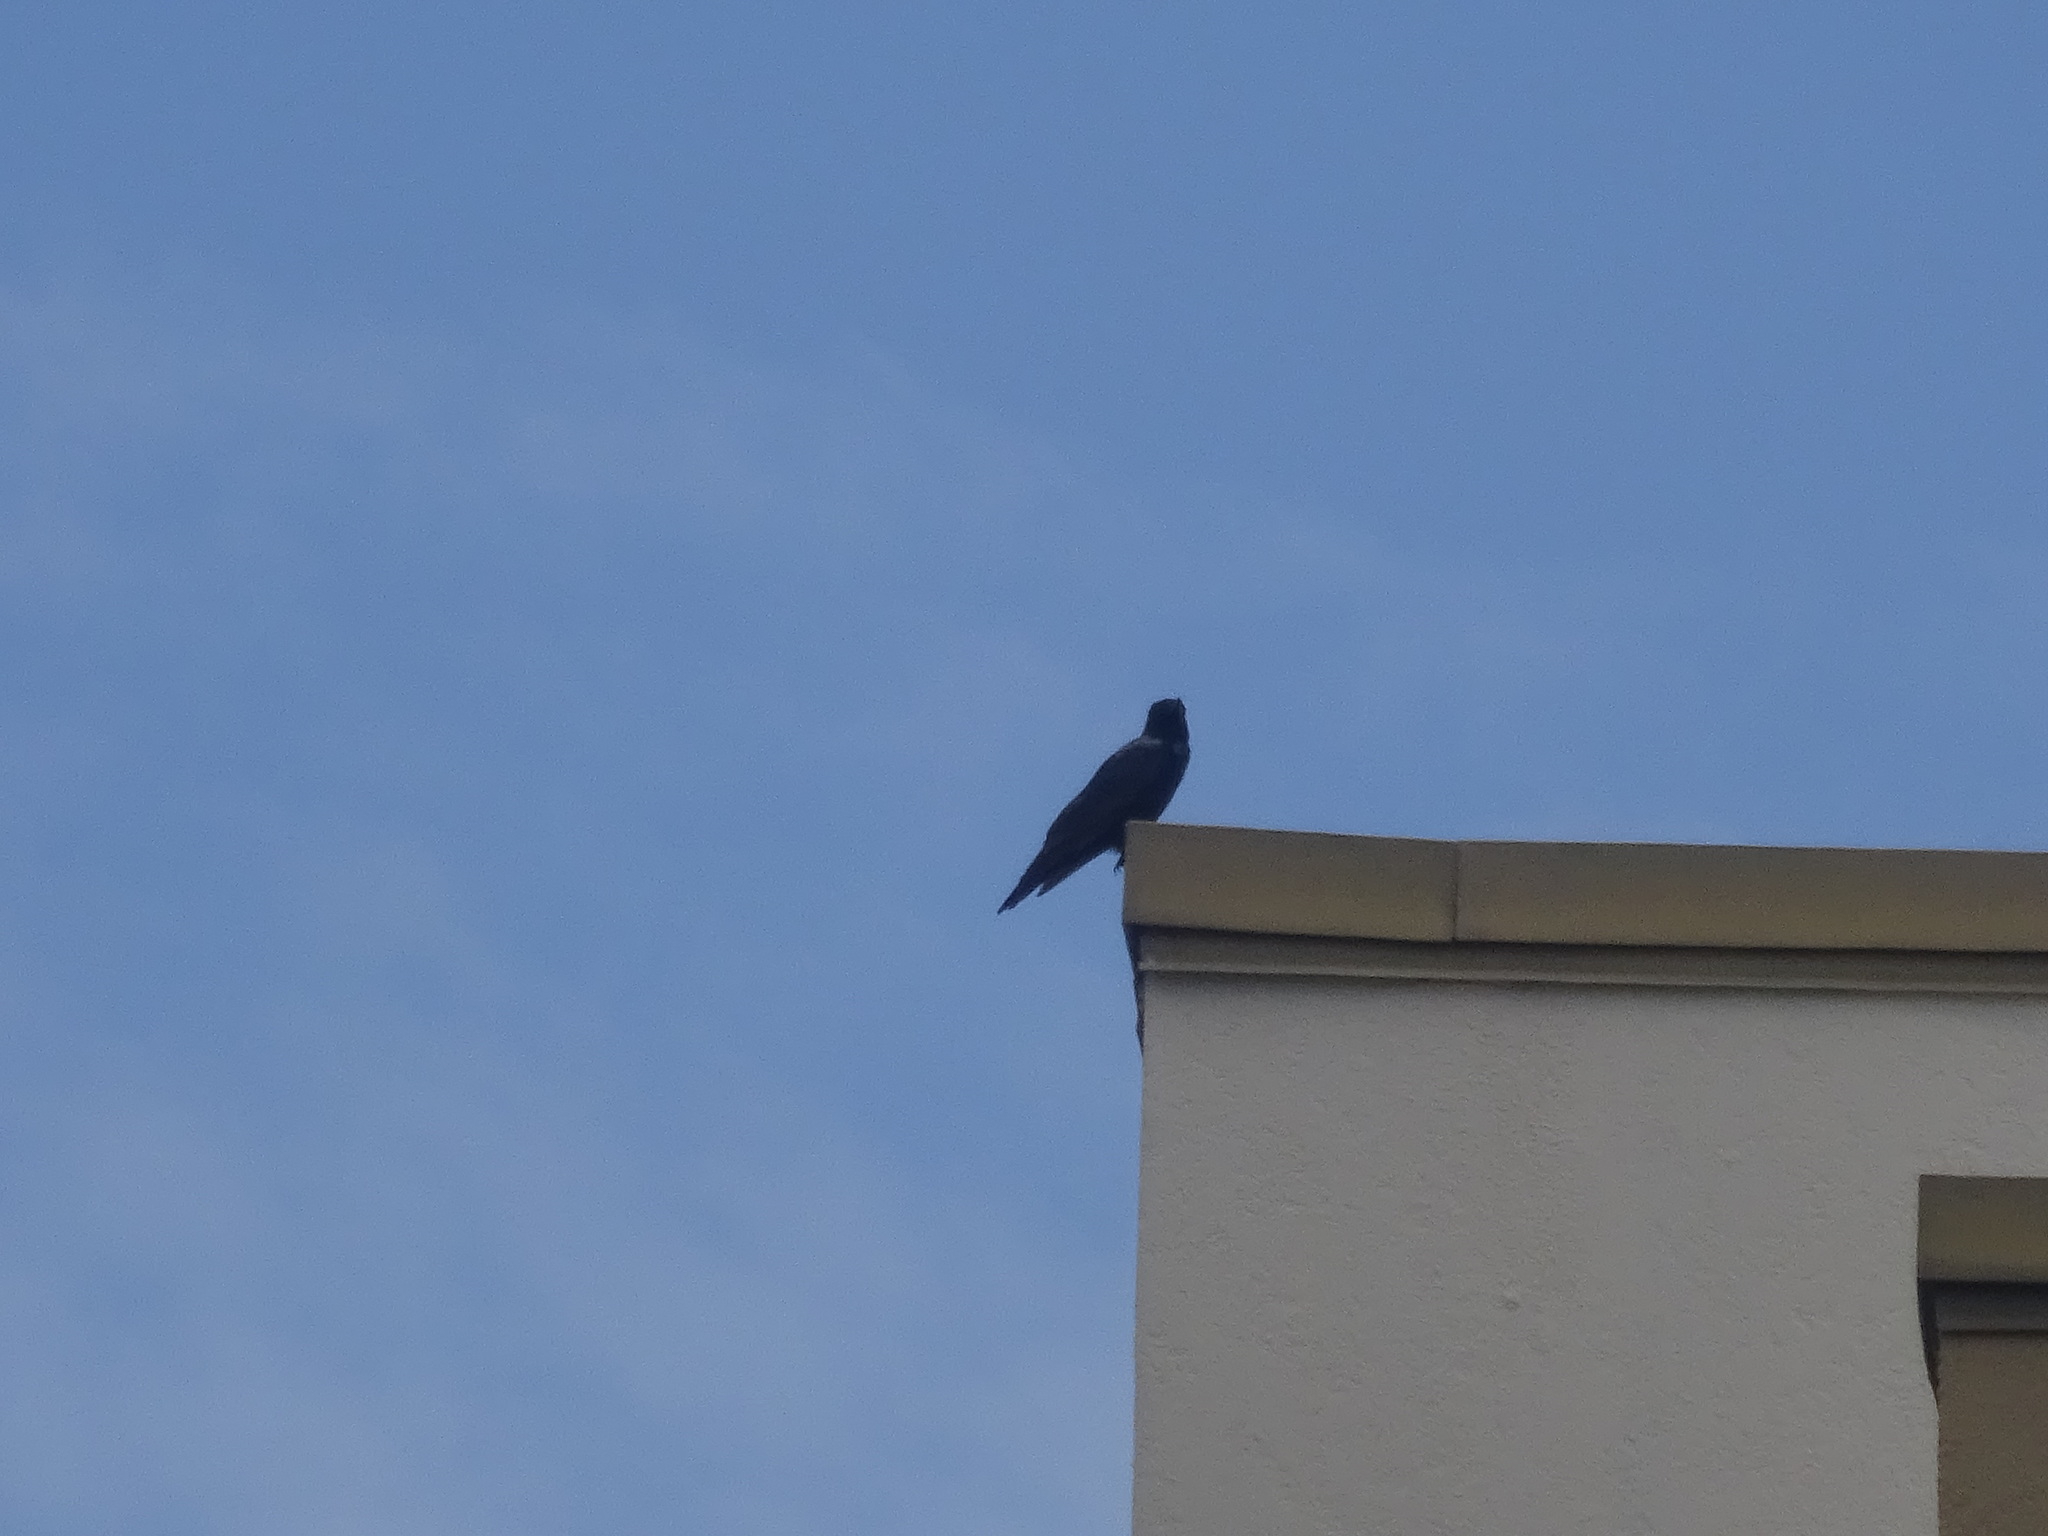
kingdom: Animalia
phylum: Chordata
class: Aves
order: Passeriformes
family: Corvidae
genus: Corvus
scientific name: Corvus ossifragus
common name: Fish crow
